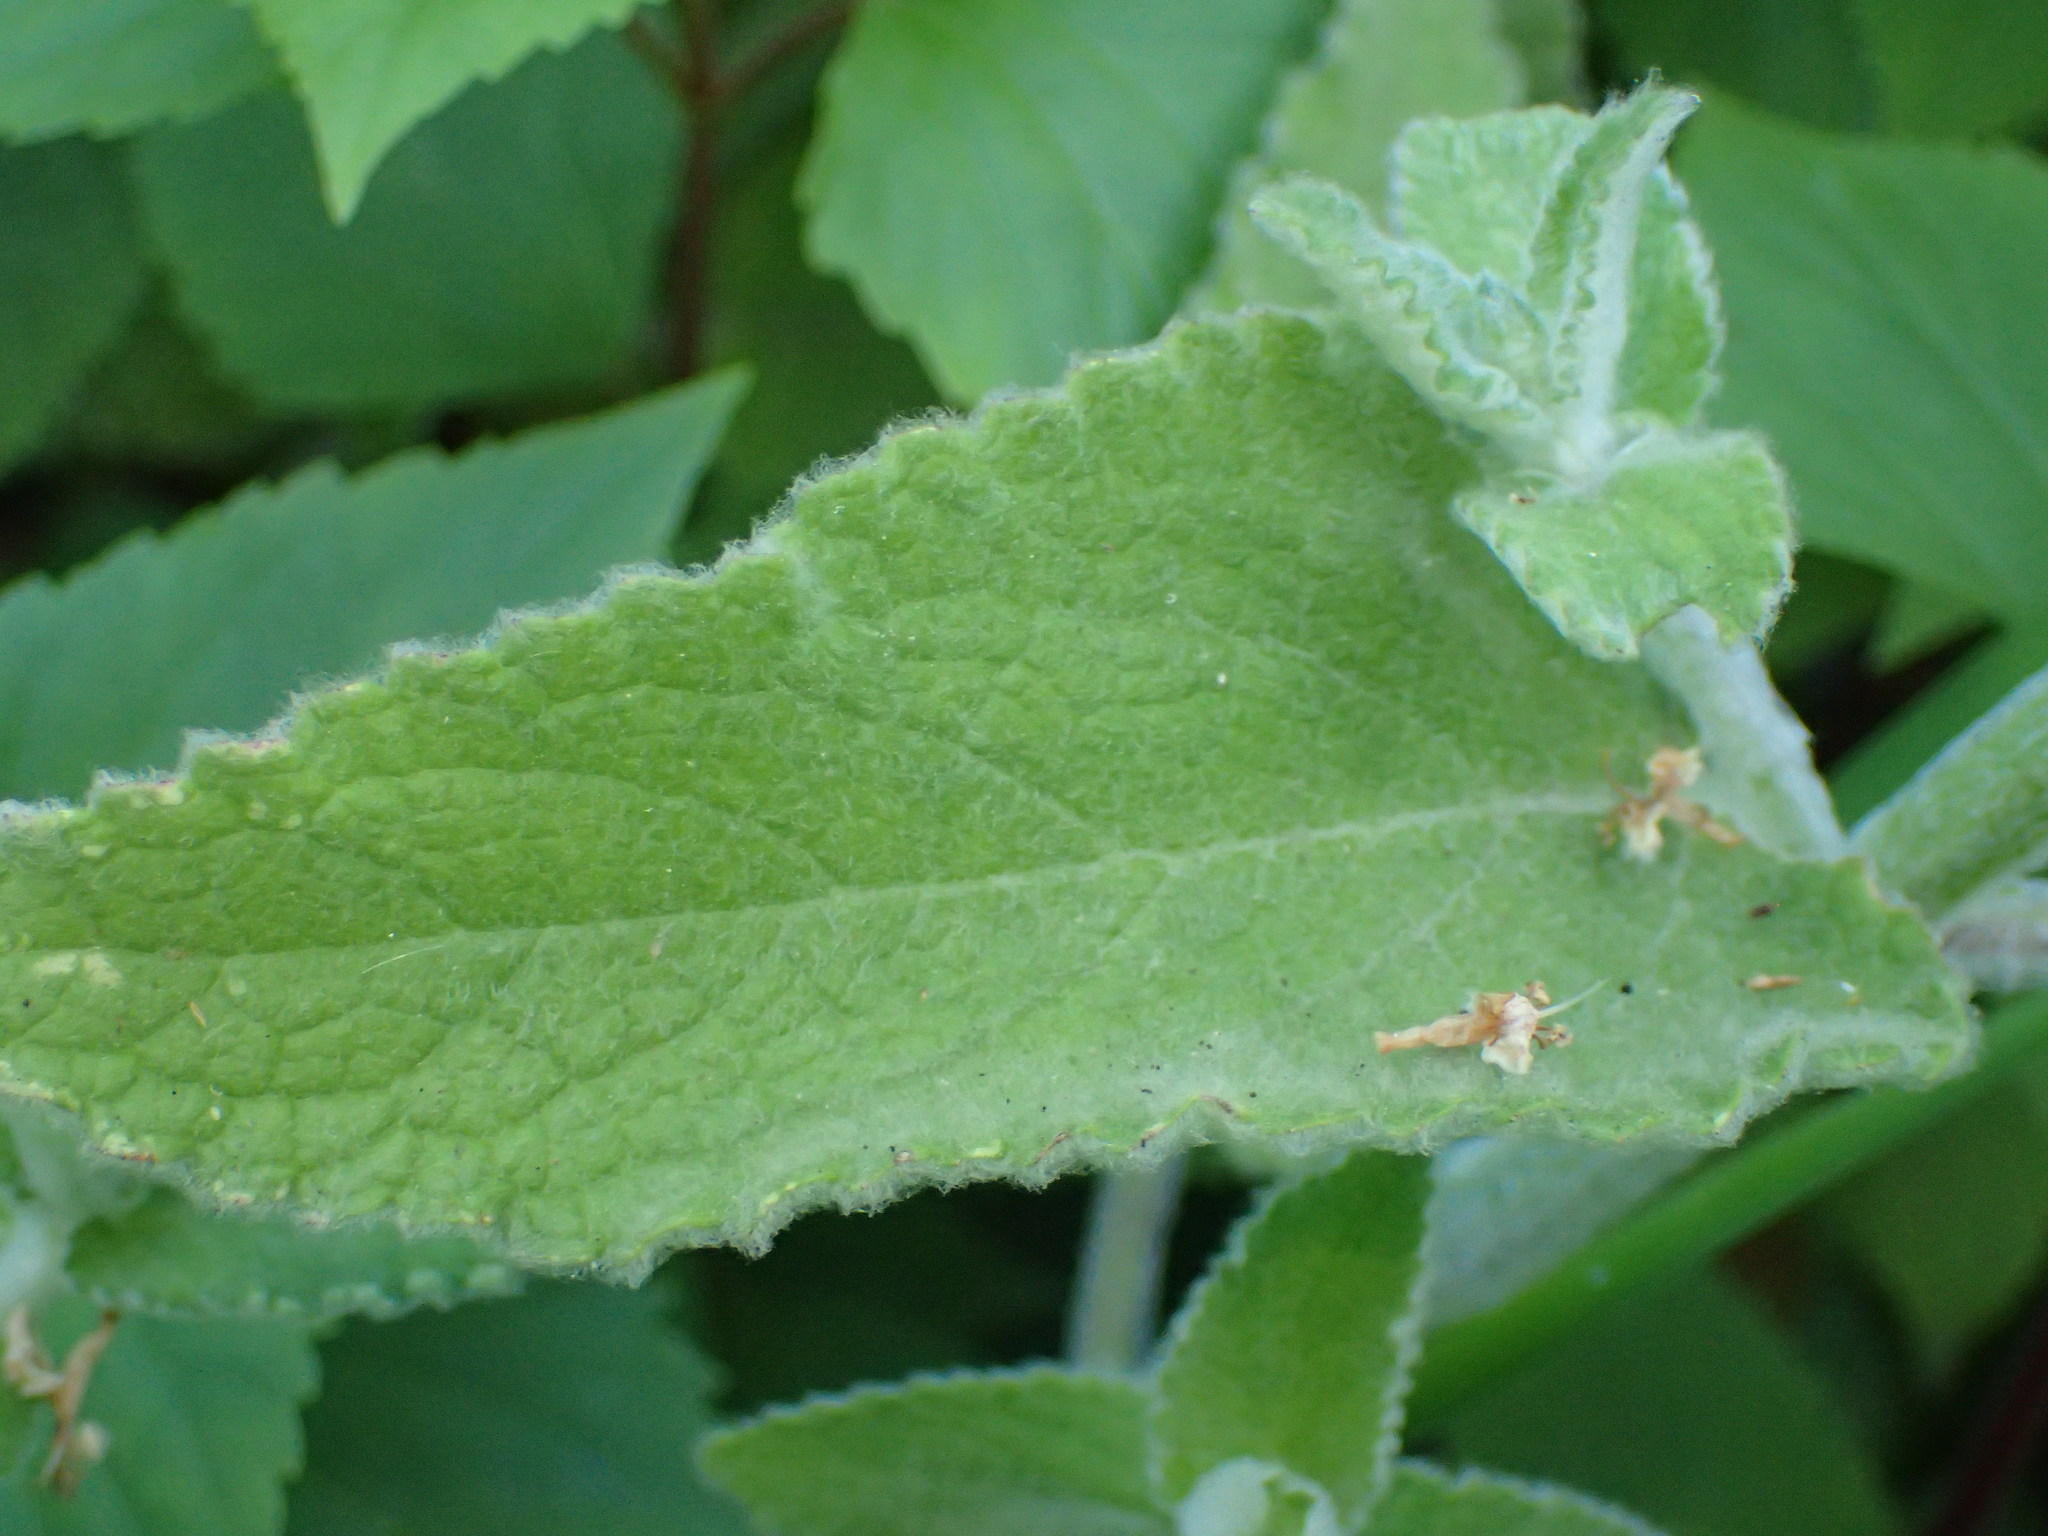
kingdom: Plantae
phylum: Tracheophyta
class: Magnoliopsida
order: Lamiales
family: Lamiaceae
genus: Stachys
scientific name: Stachys albens
